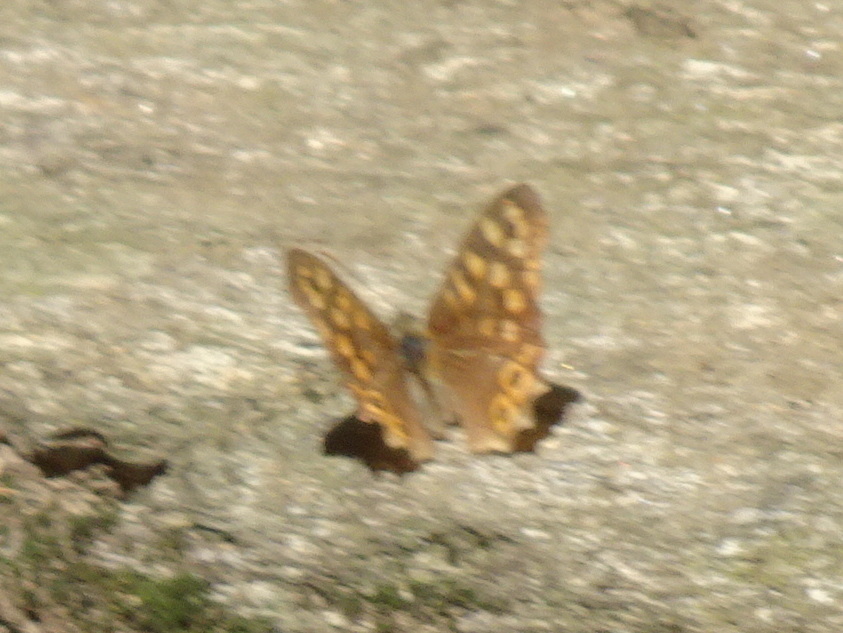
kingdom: Animalia
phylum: Arthropoda
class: Insecta
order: Lepidoptera
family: Nymphalidae
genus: Pararge
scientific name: Pararge aegeria
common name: Speckled wood
